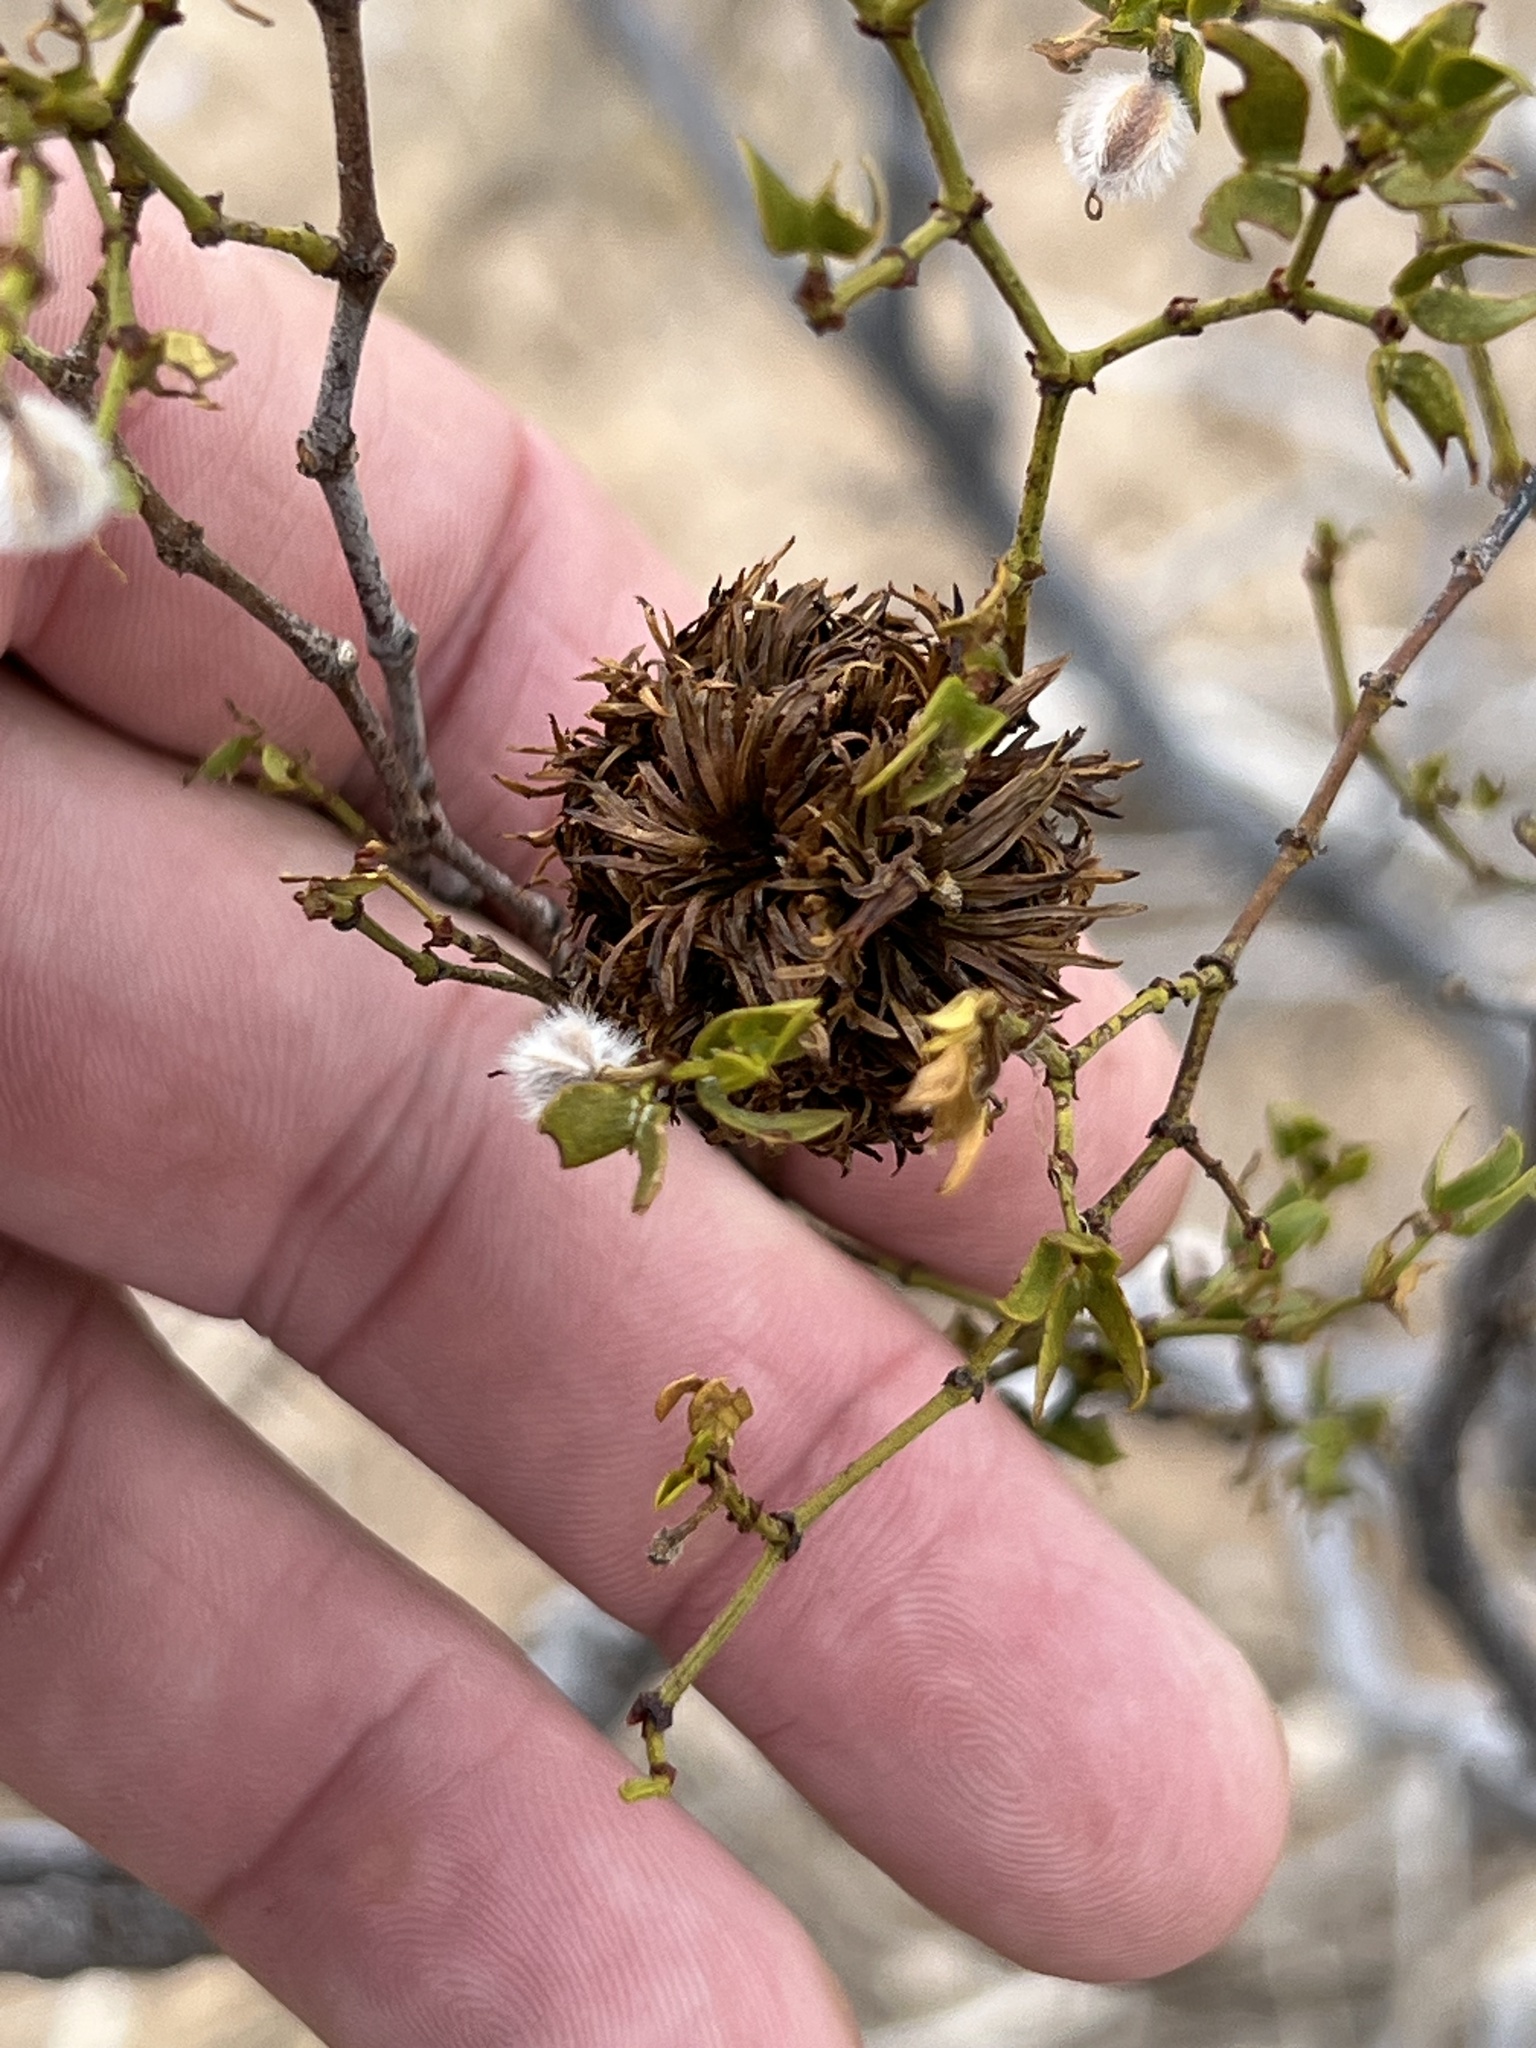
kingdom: Animalia
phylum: Arthropoda
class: Insecta
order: Diptera
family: Cecidomyiidae
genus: Asphondylia
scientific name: Asphondylia auripila
